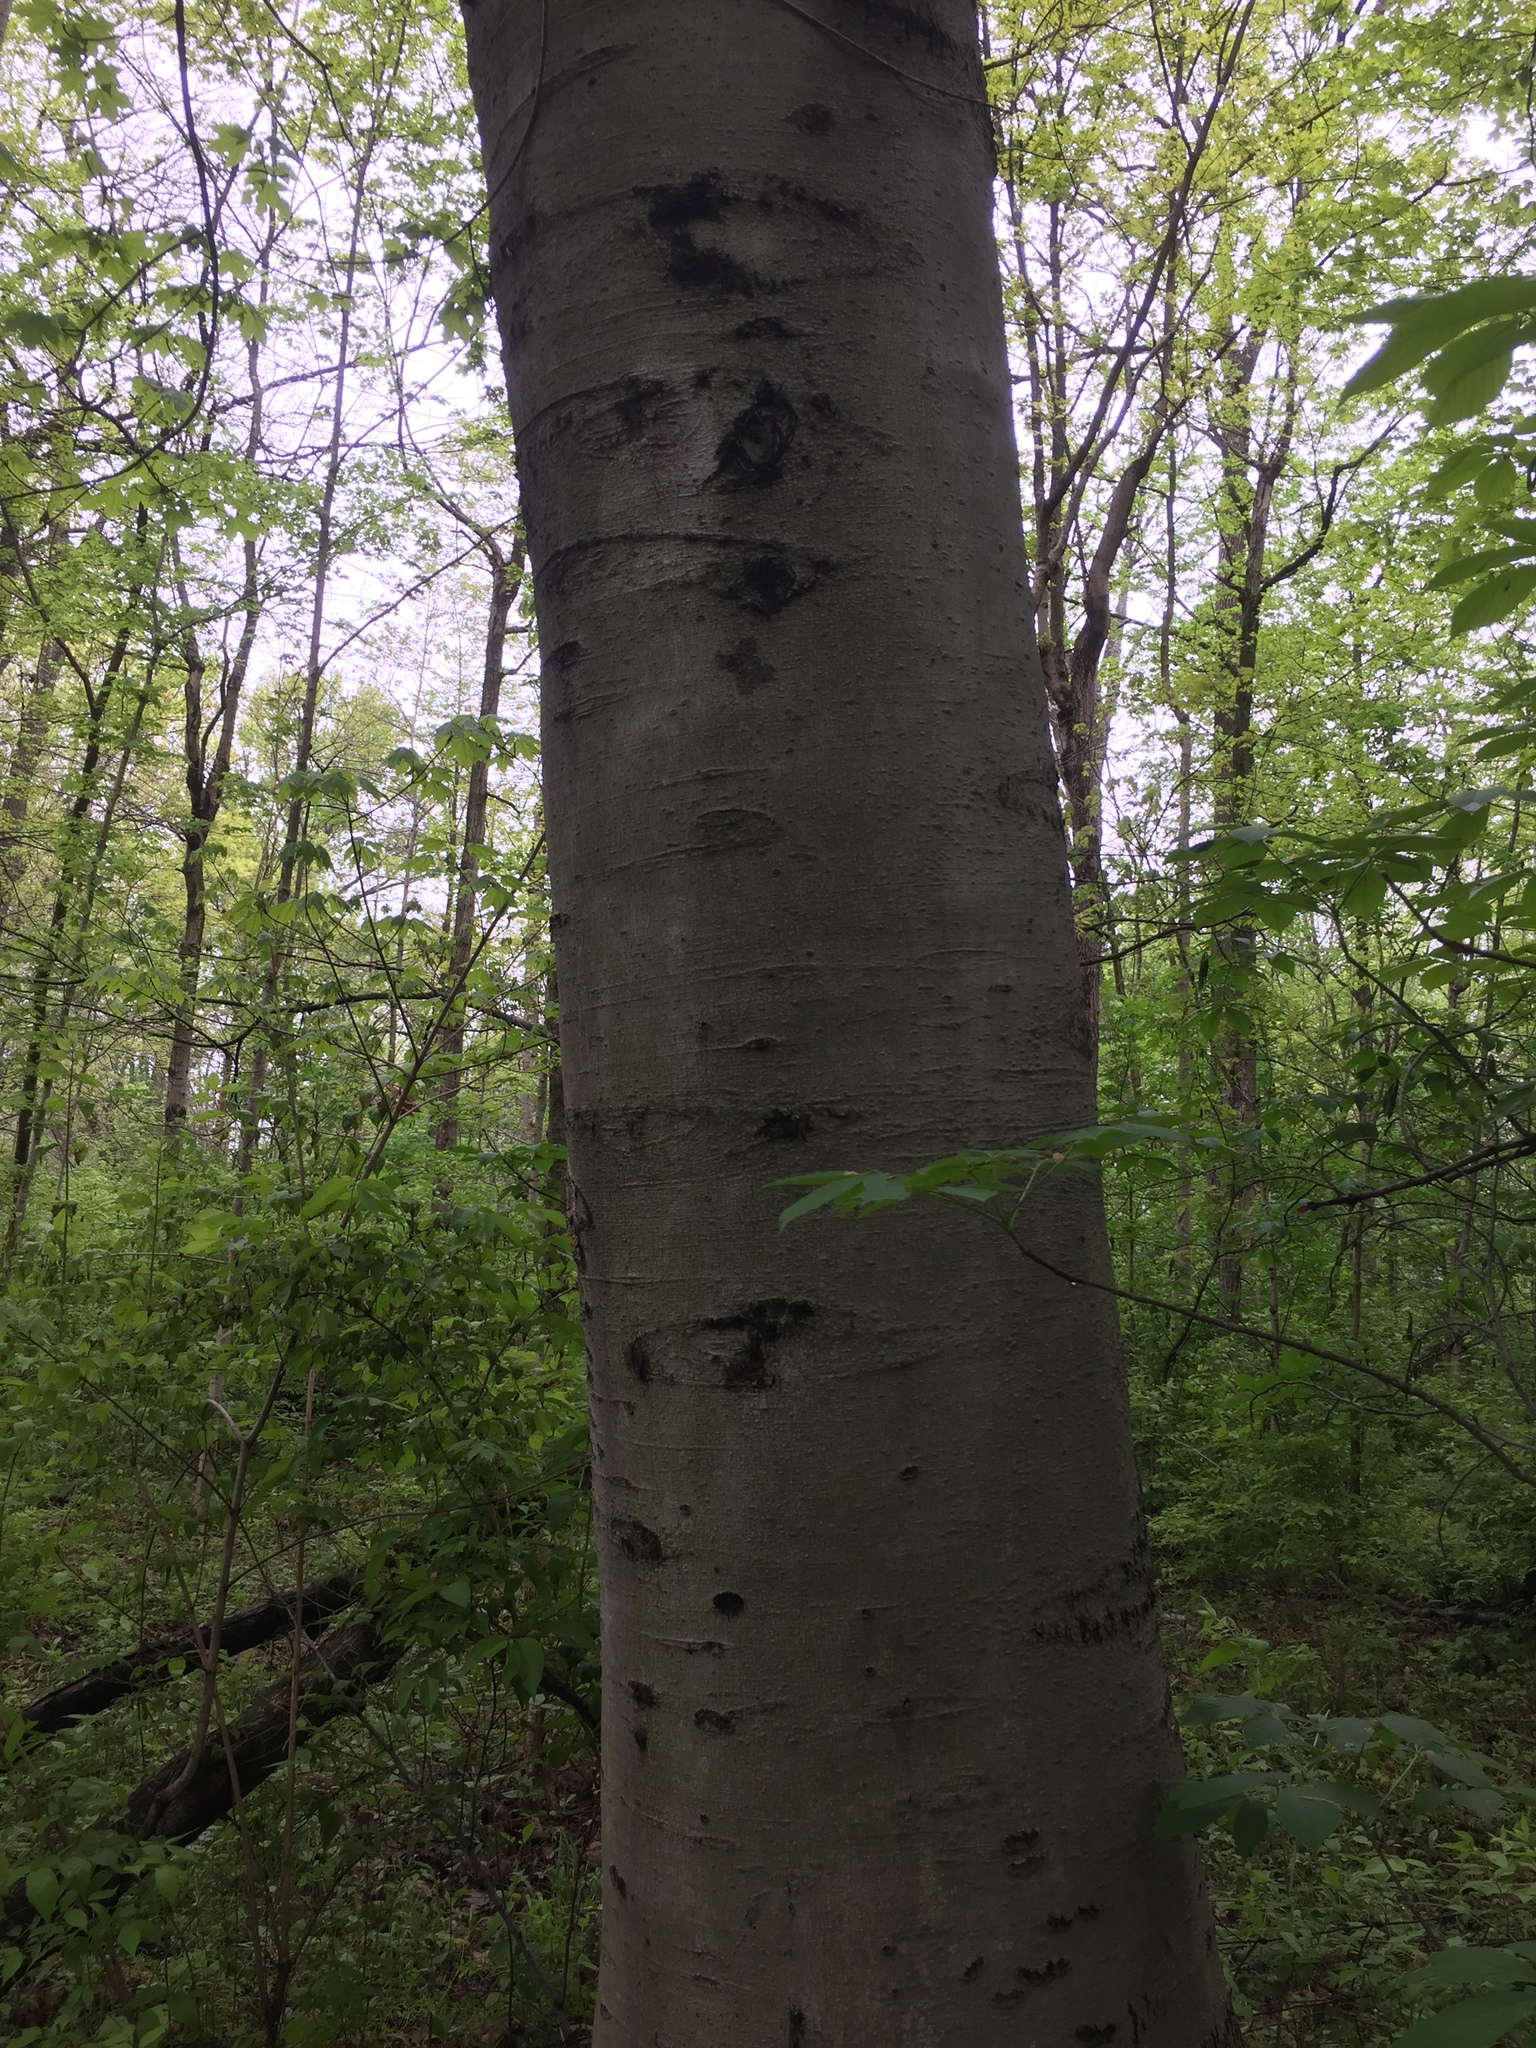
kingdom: Plantae
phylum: Tracheophyta
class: Magnoliopsida
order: Fagales
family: Fagaceae
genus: Fagus
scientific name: Fagus grandifolia
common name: American beech
